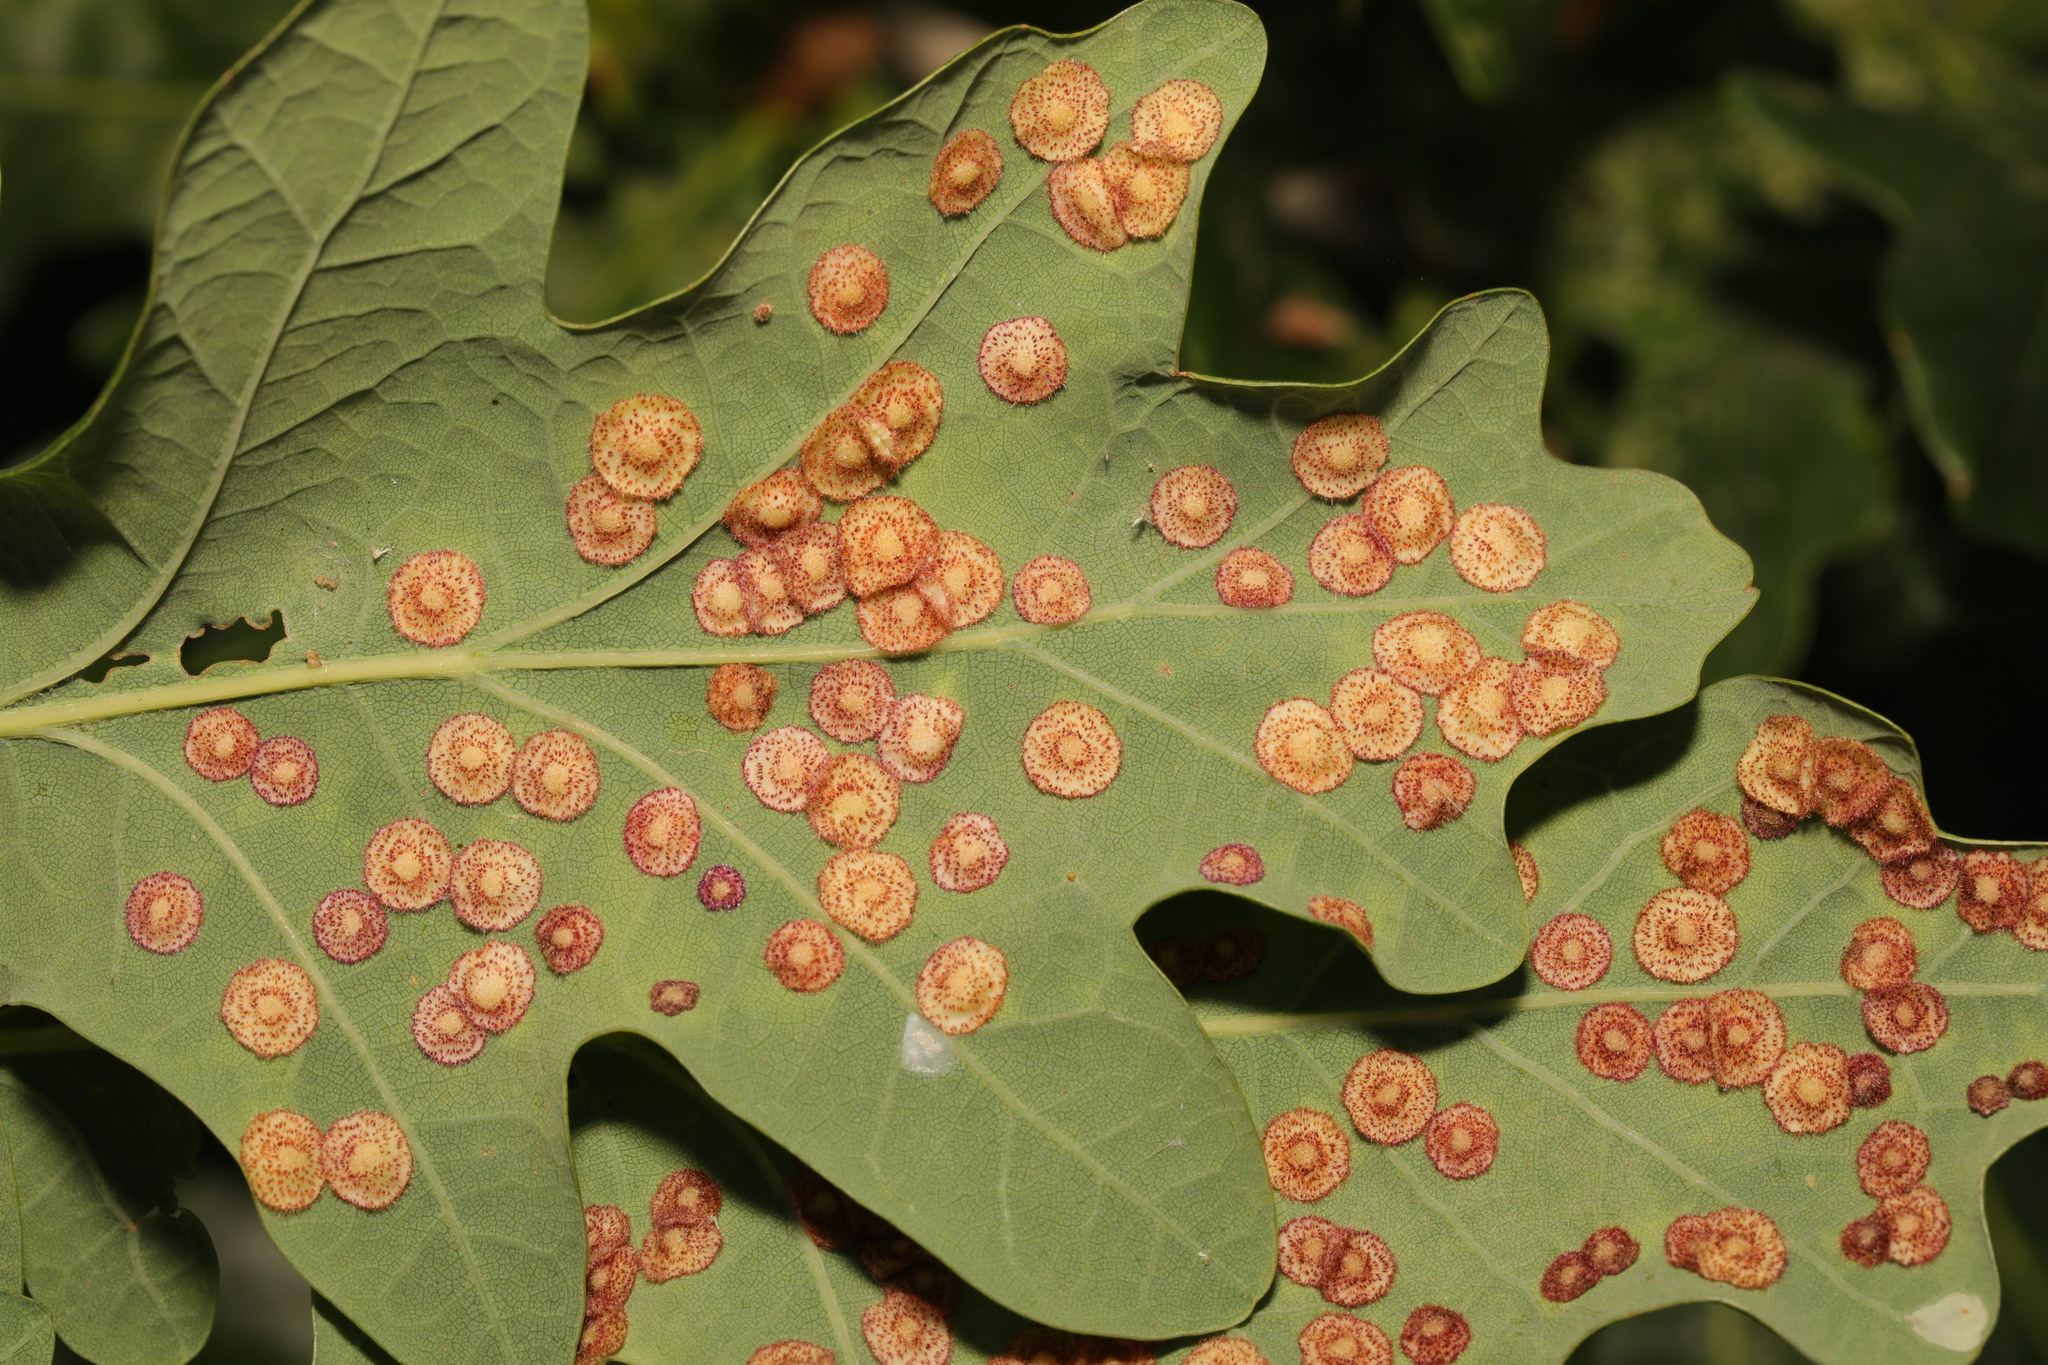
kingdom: Animalia
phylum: Arthropoda
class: Insecta
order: Hymenoptera
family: Cynipidae
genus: Neuroterus
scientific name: Neuroterus quercusbaccarum
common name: Common spangle gall
